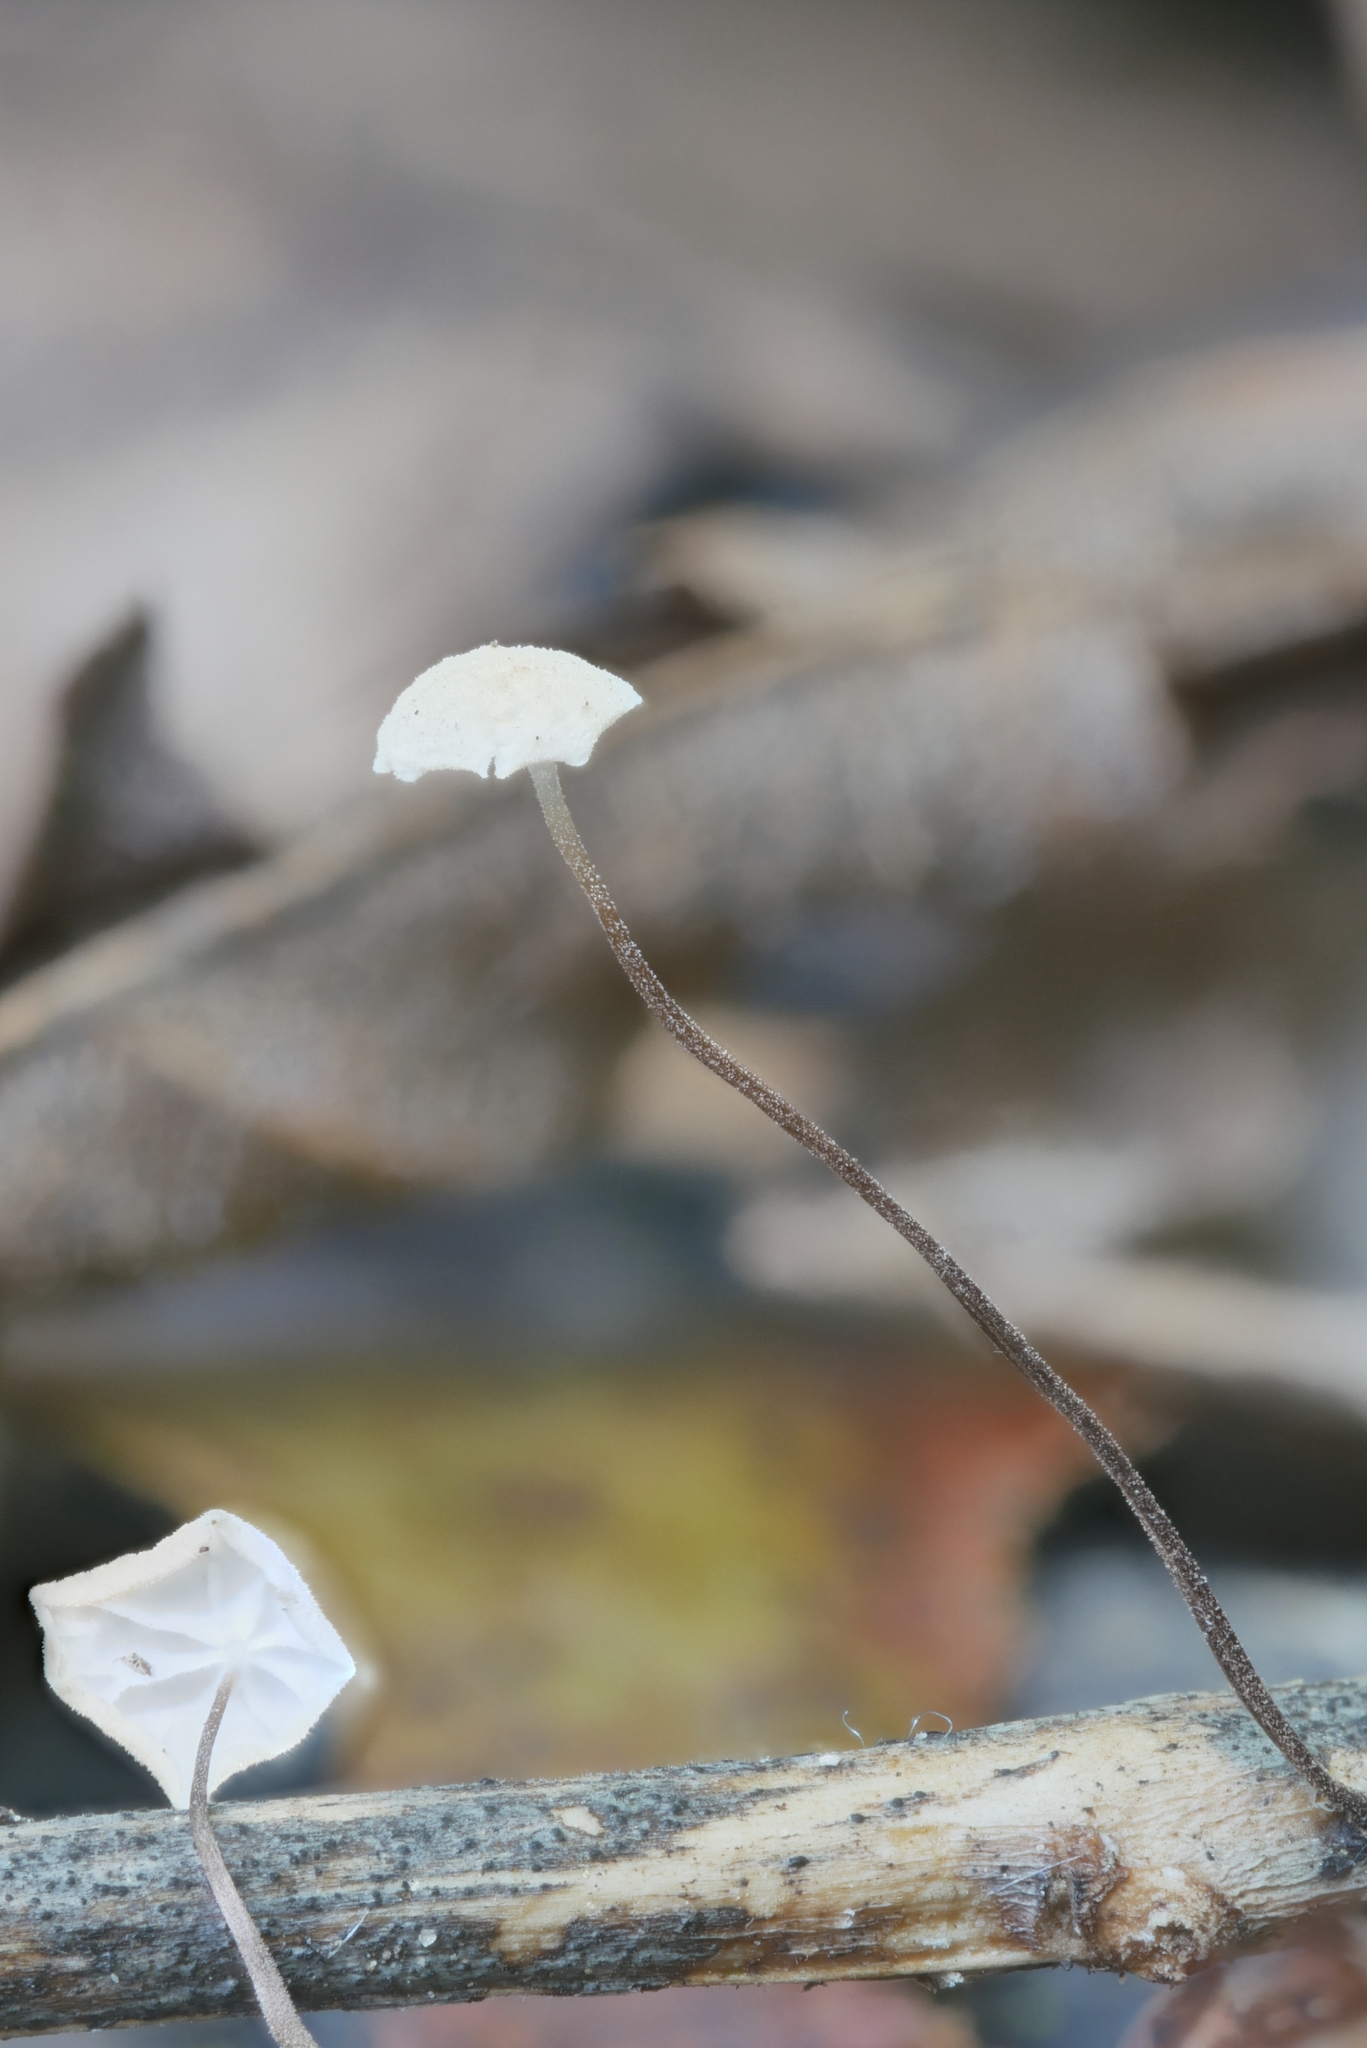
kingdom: Fungi
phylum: Basidiomycota
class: Agaricomycetes
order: Agaricales
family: Physalacriaceae
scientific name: Physalacriaceae
